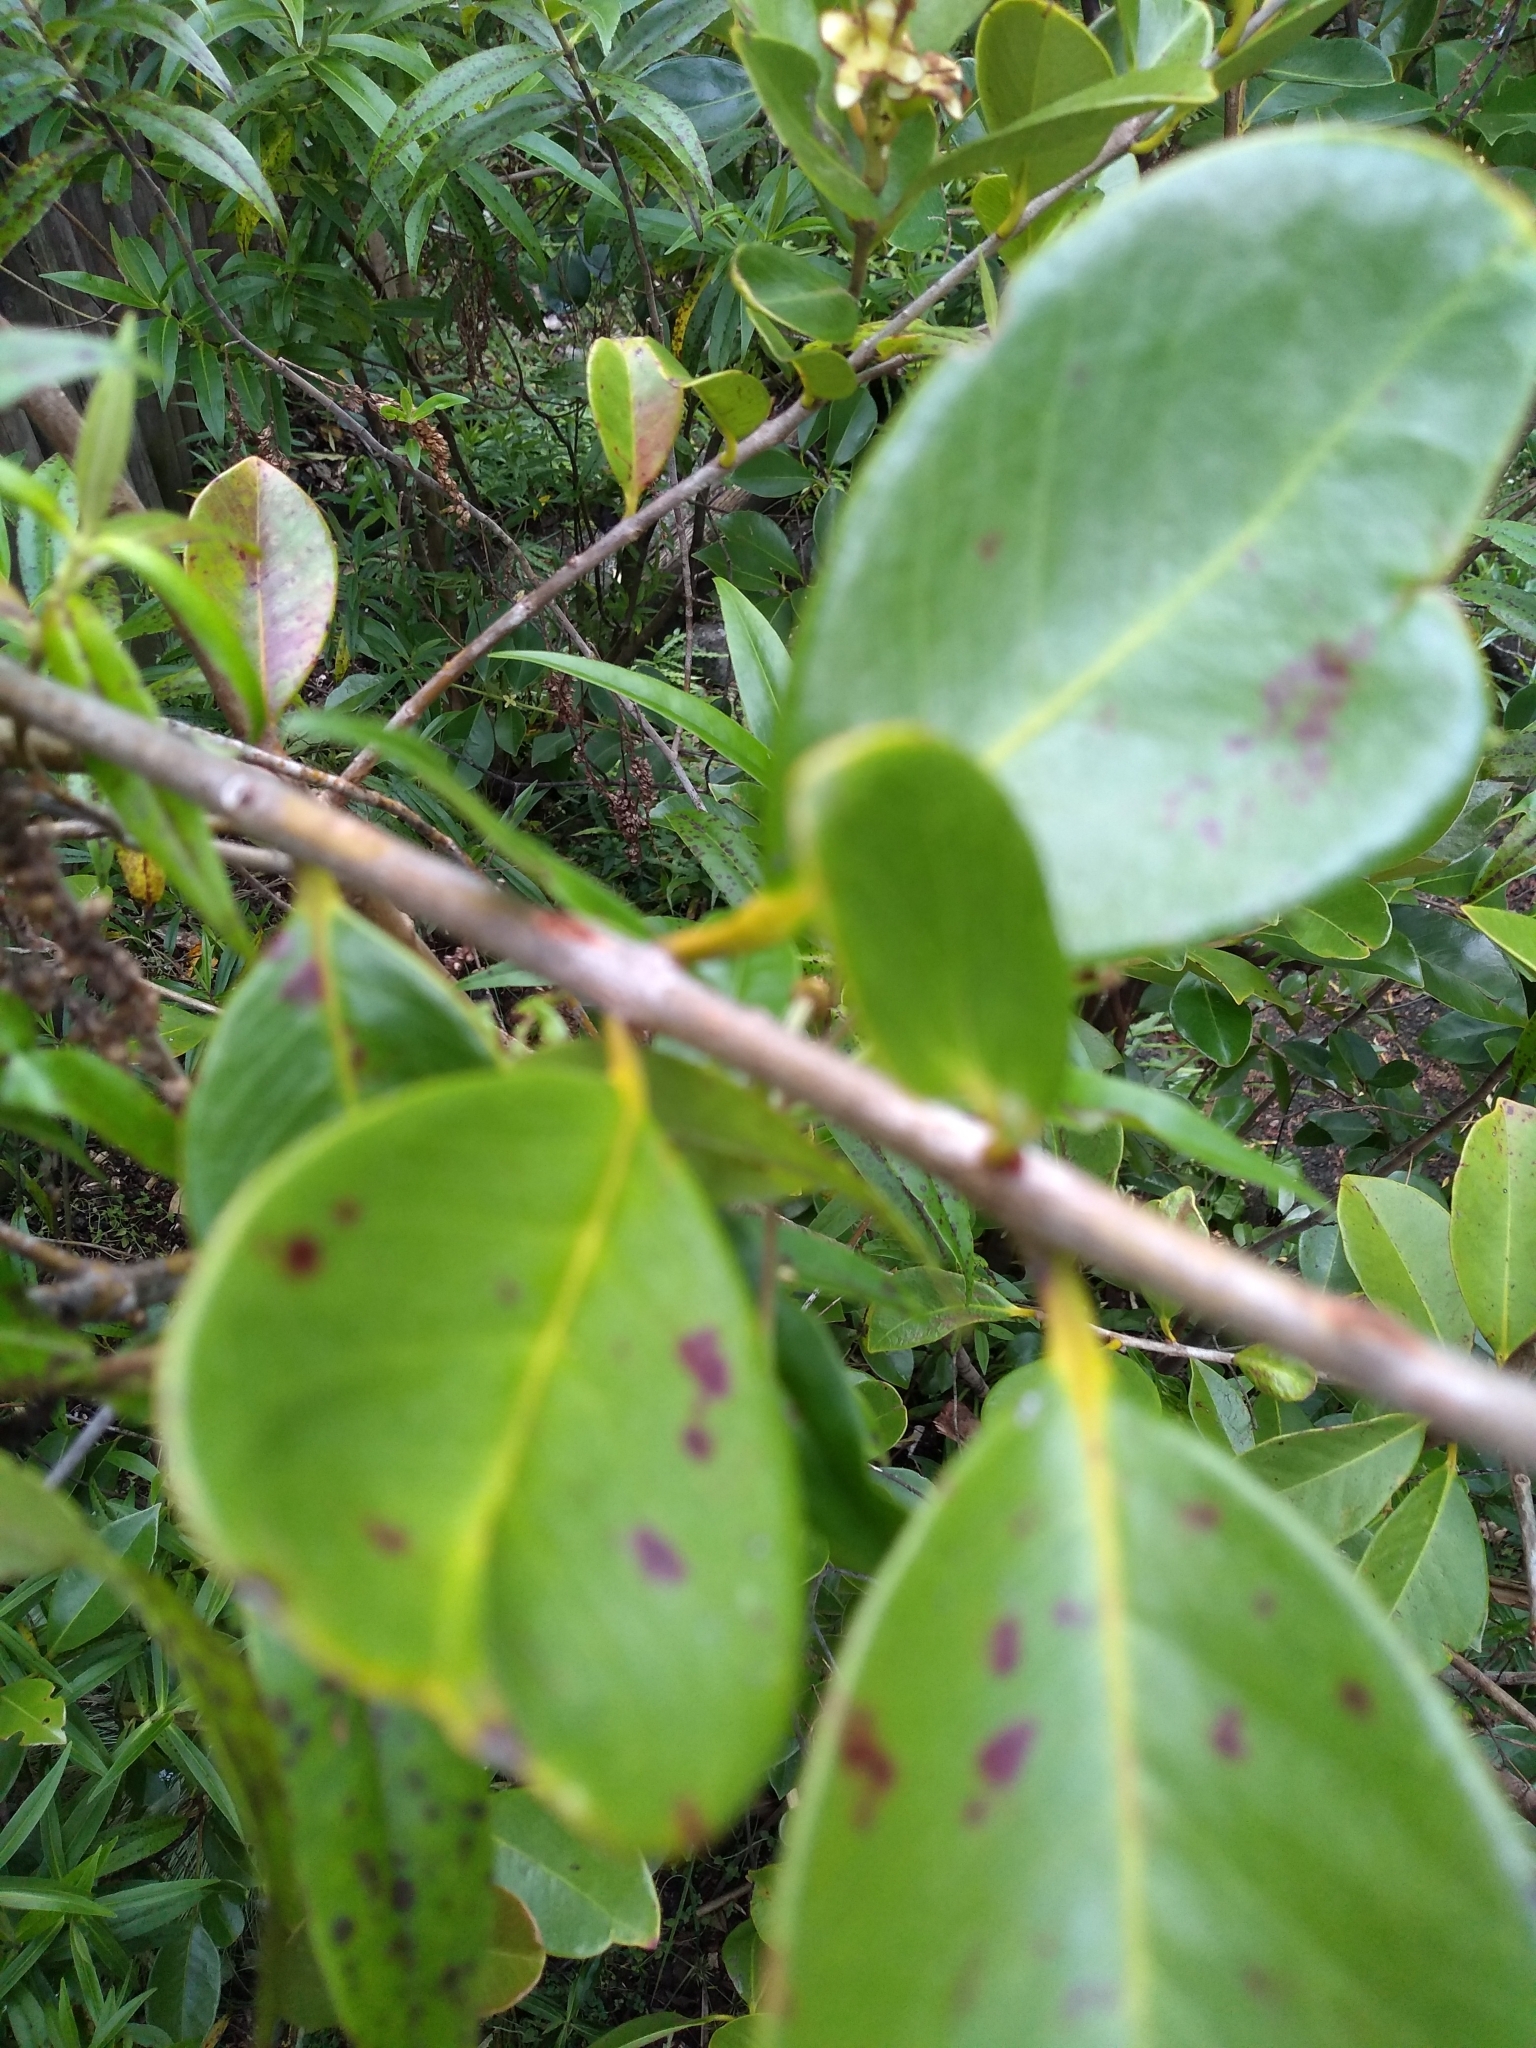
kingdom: Plantae
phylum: Tracheophyta
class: Magnoliopsida
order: Myrtales
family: Myrtaceae
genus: Psidium
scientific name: Psidium cattleianum
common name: Strawberry guava
